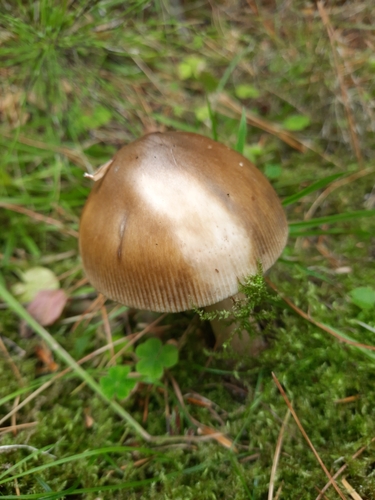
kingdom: Fungi
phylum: Basidiomycota
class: Agaricomycetes
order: Agaricales
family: Amanitaceae
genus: Amanita
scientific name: Amanita battarrae
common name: Banded amanita
